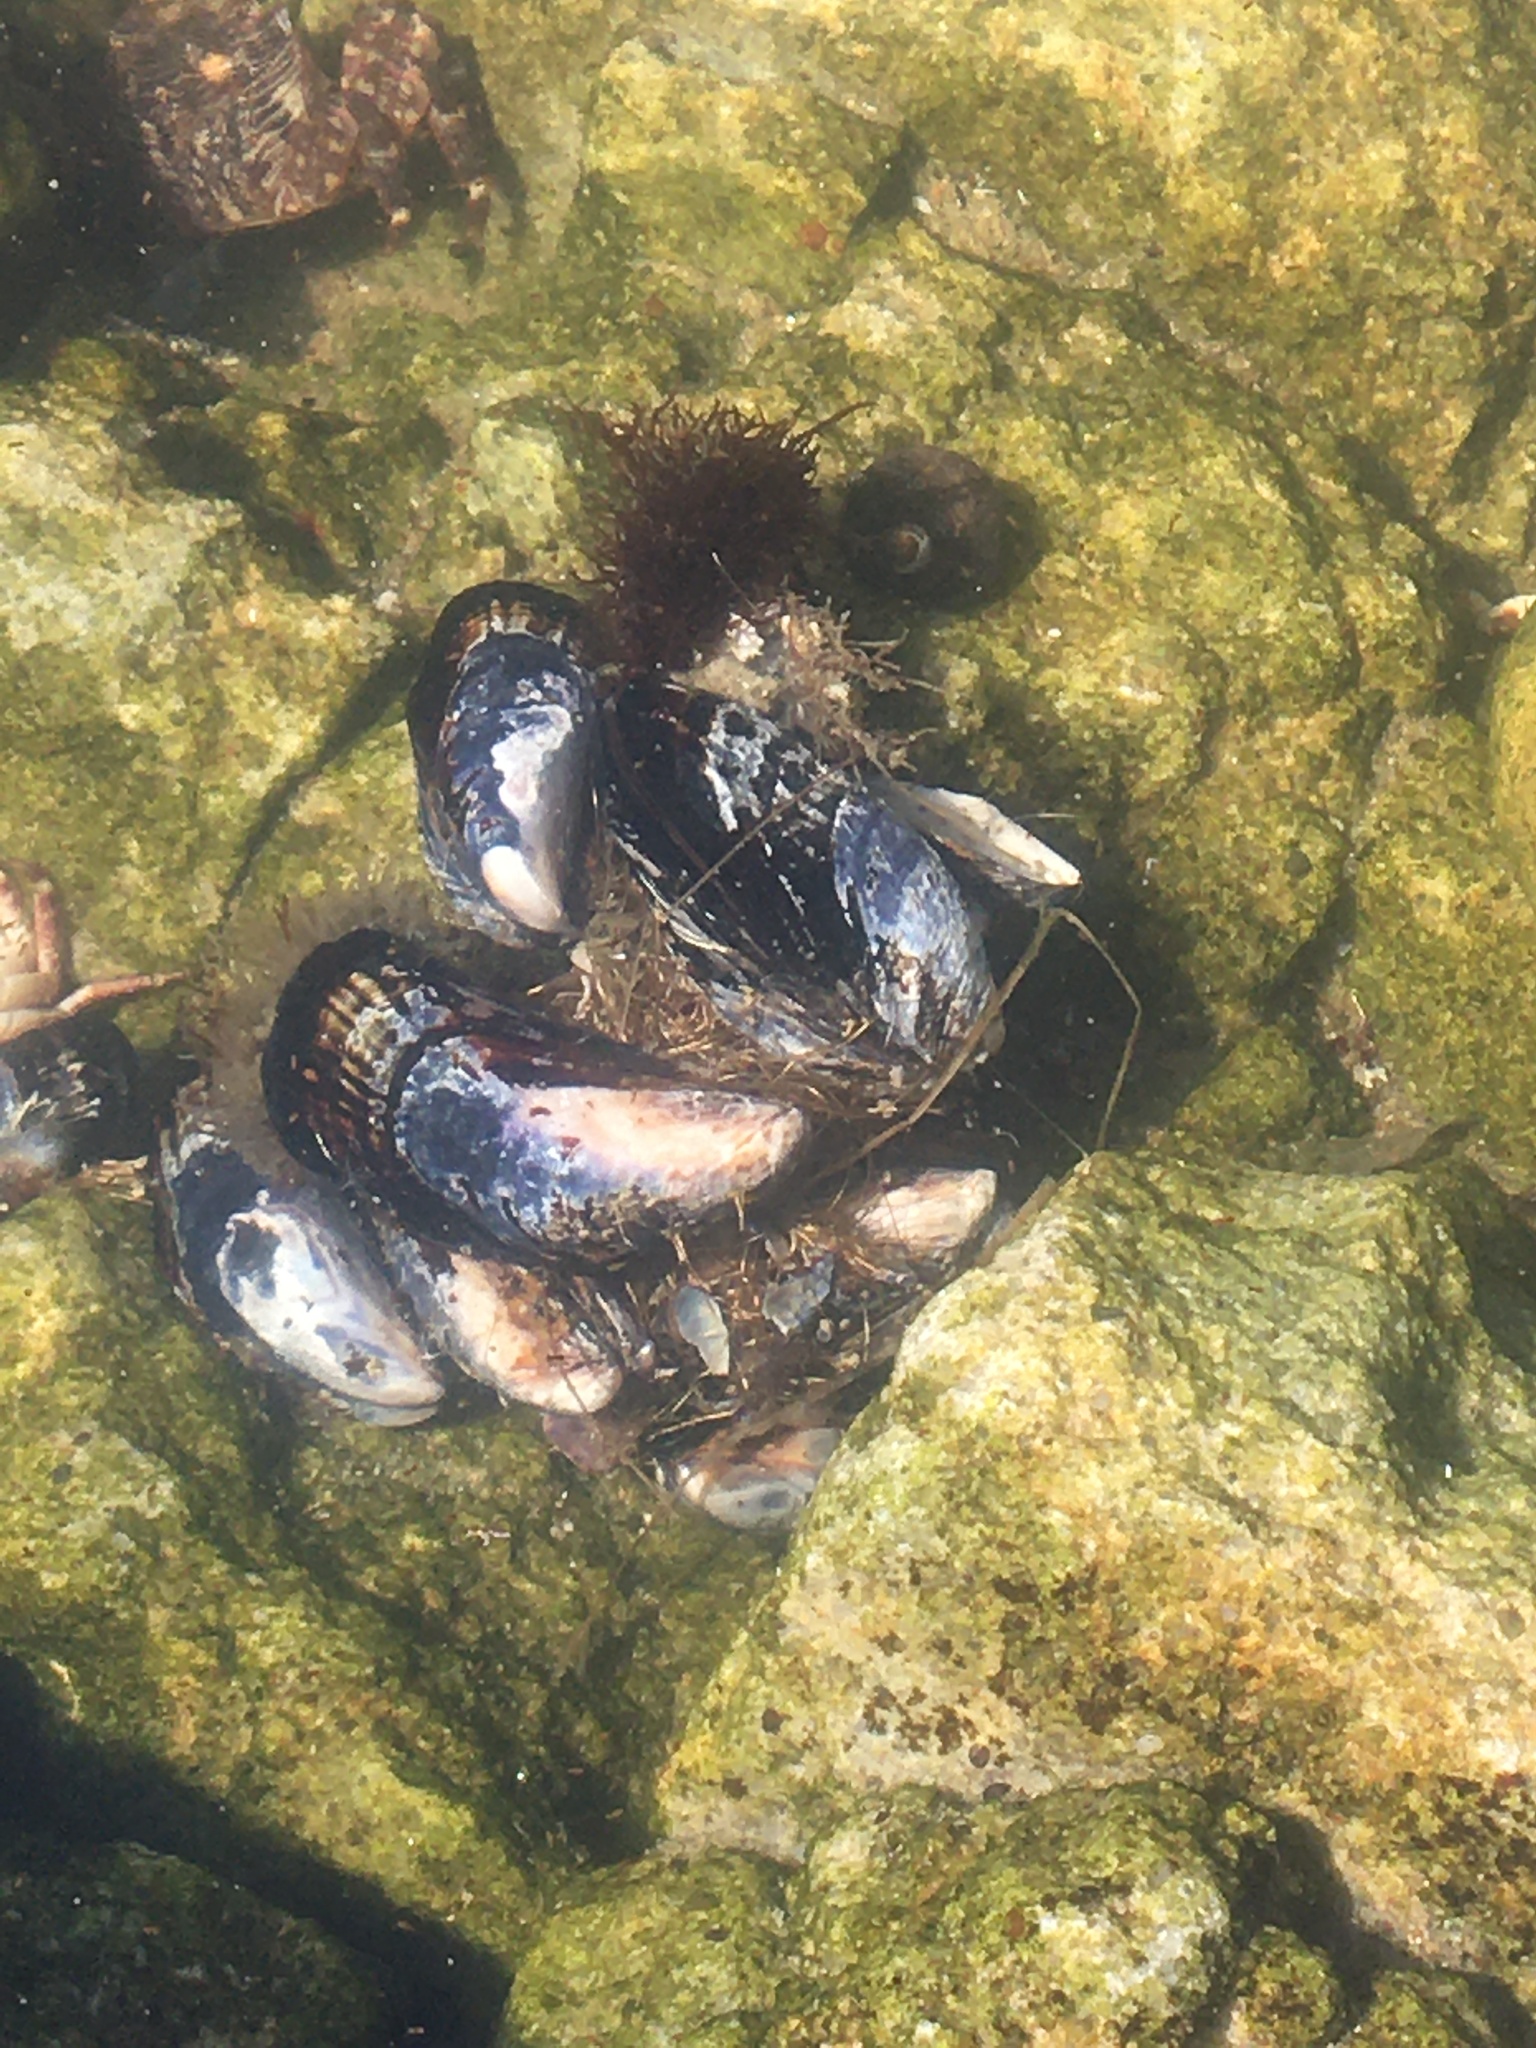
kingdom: Animalia
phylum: Mollusca
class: Bivalvia
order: Mytilida
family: Mytilidae
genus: Mytilus
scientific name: Mytilus californianus
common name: California mussel
